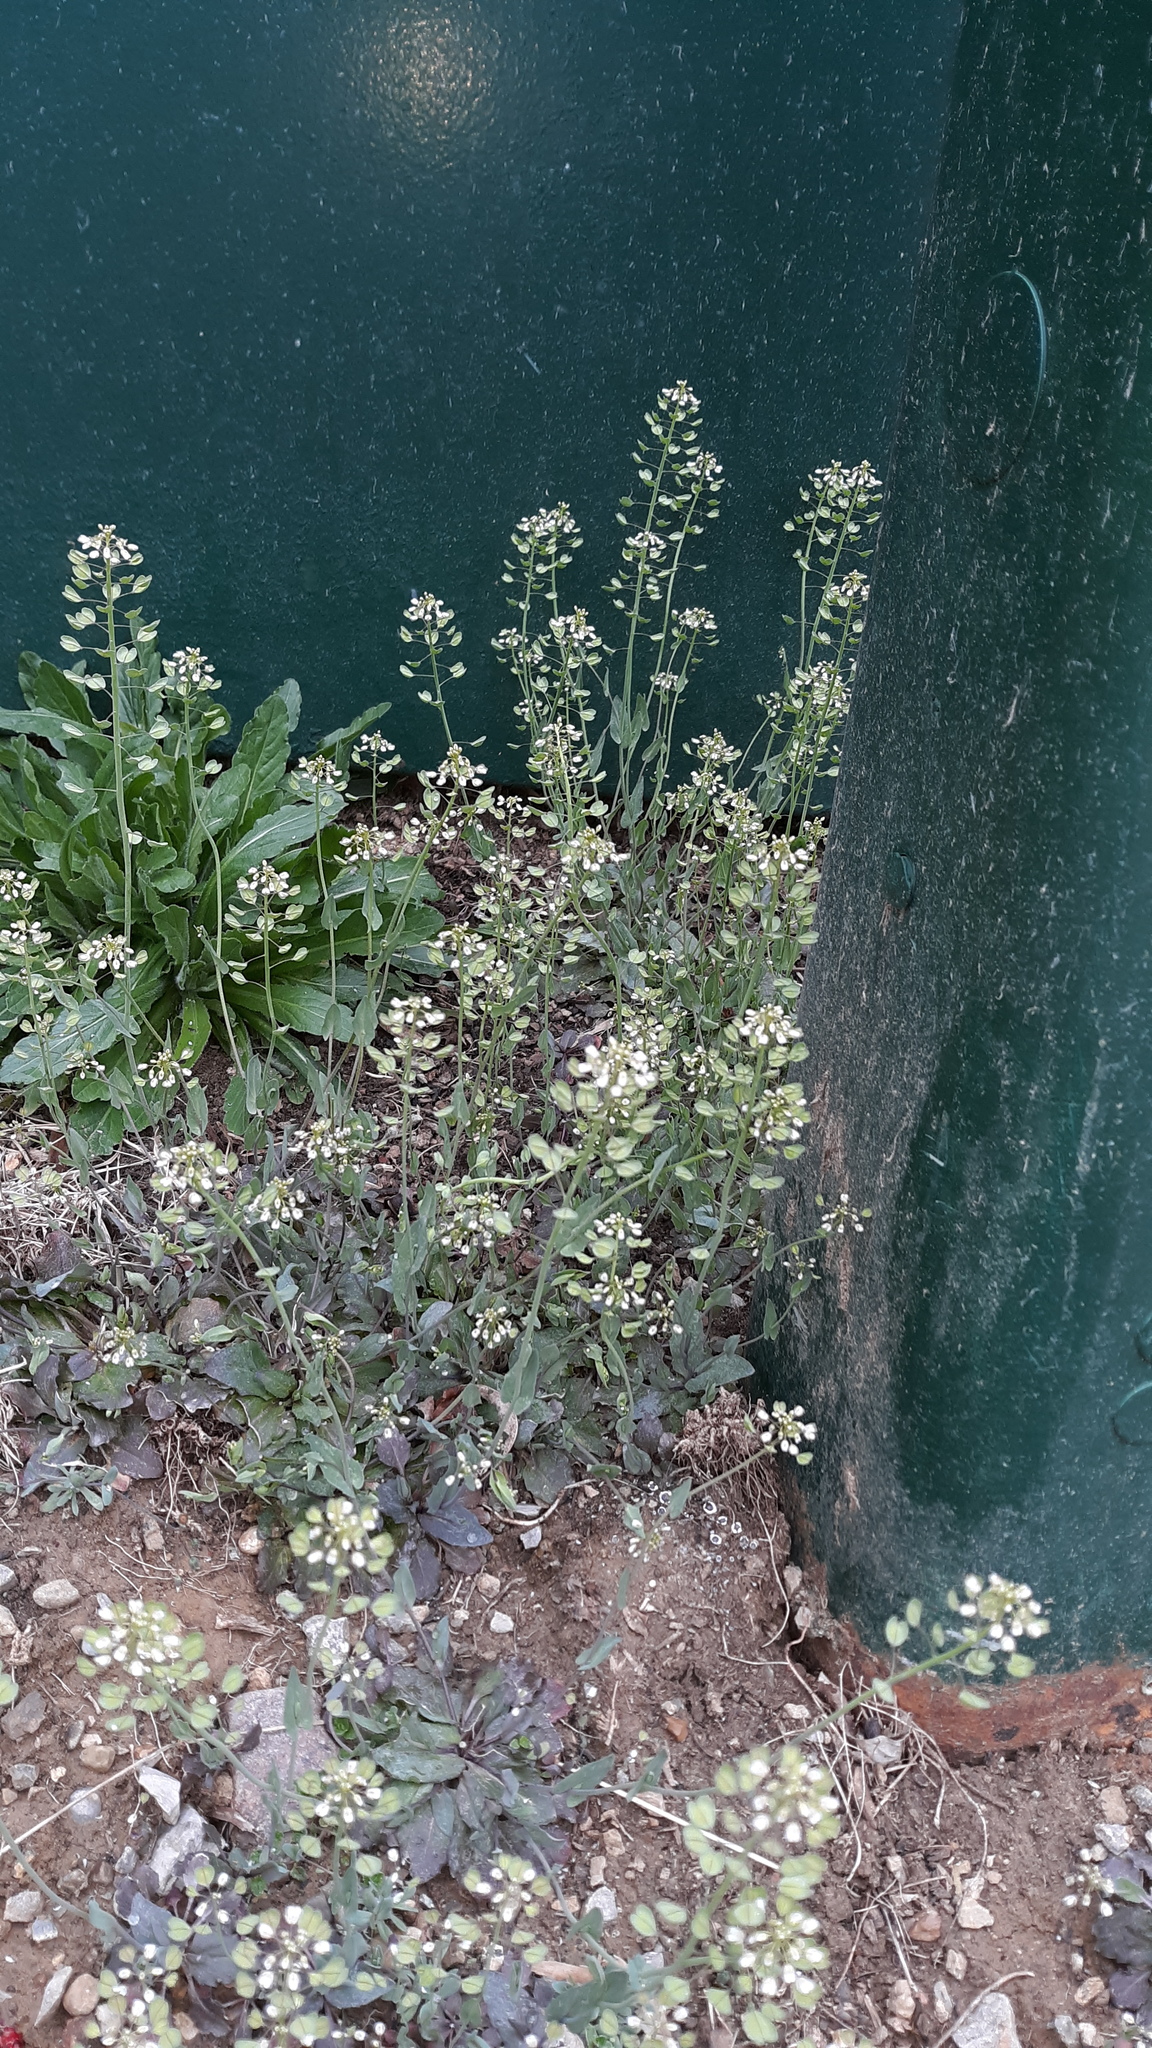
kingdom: Plantae
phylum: Tracheophyta
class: Magnoliopsida
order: Brassicales
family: Brassicaceae
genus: Noccaea
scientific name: Noccaea perfoliata
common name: Perfoliate pennycress
